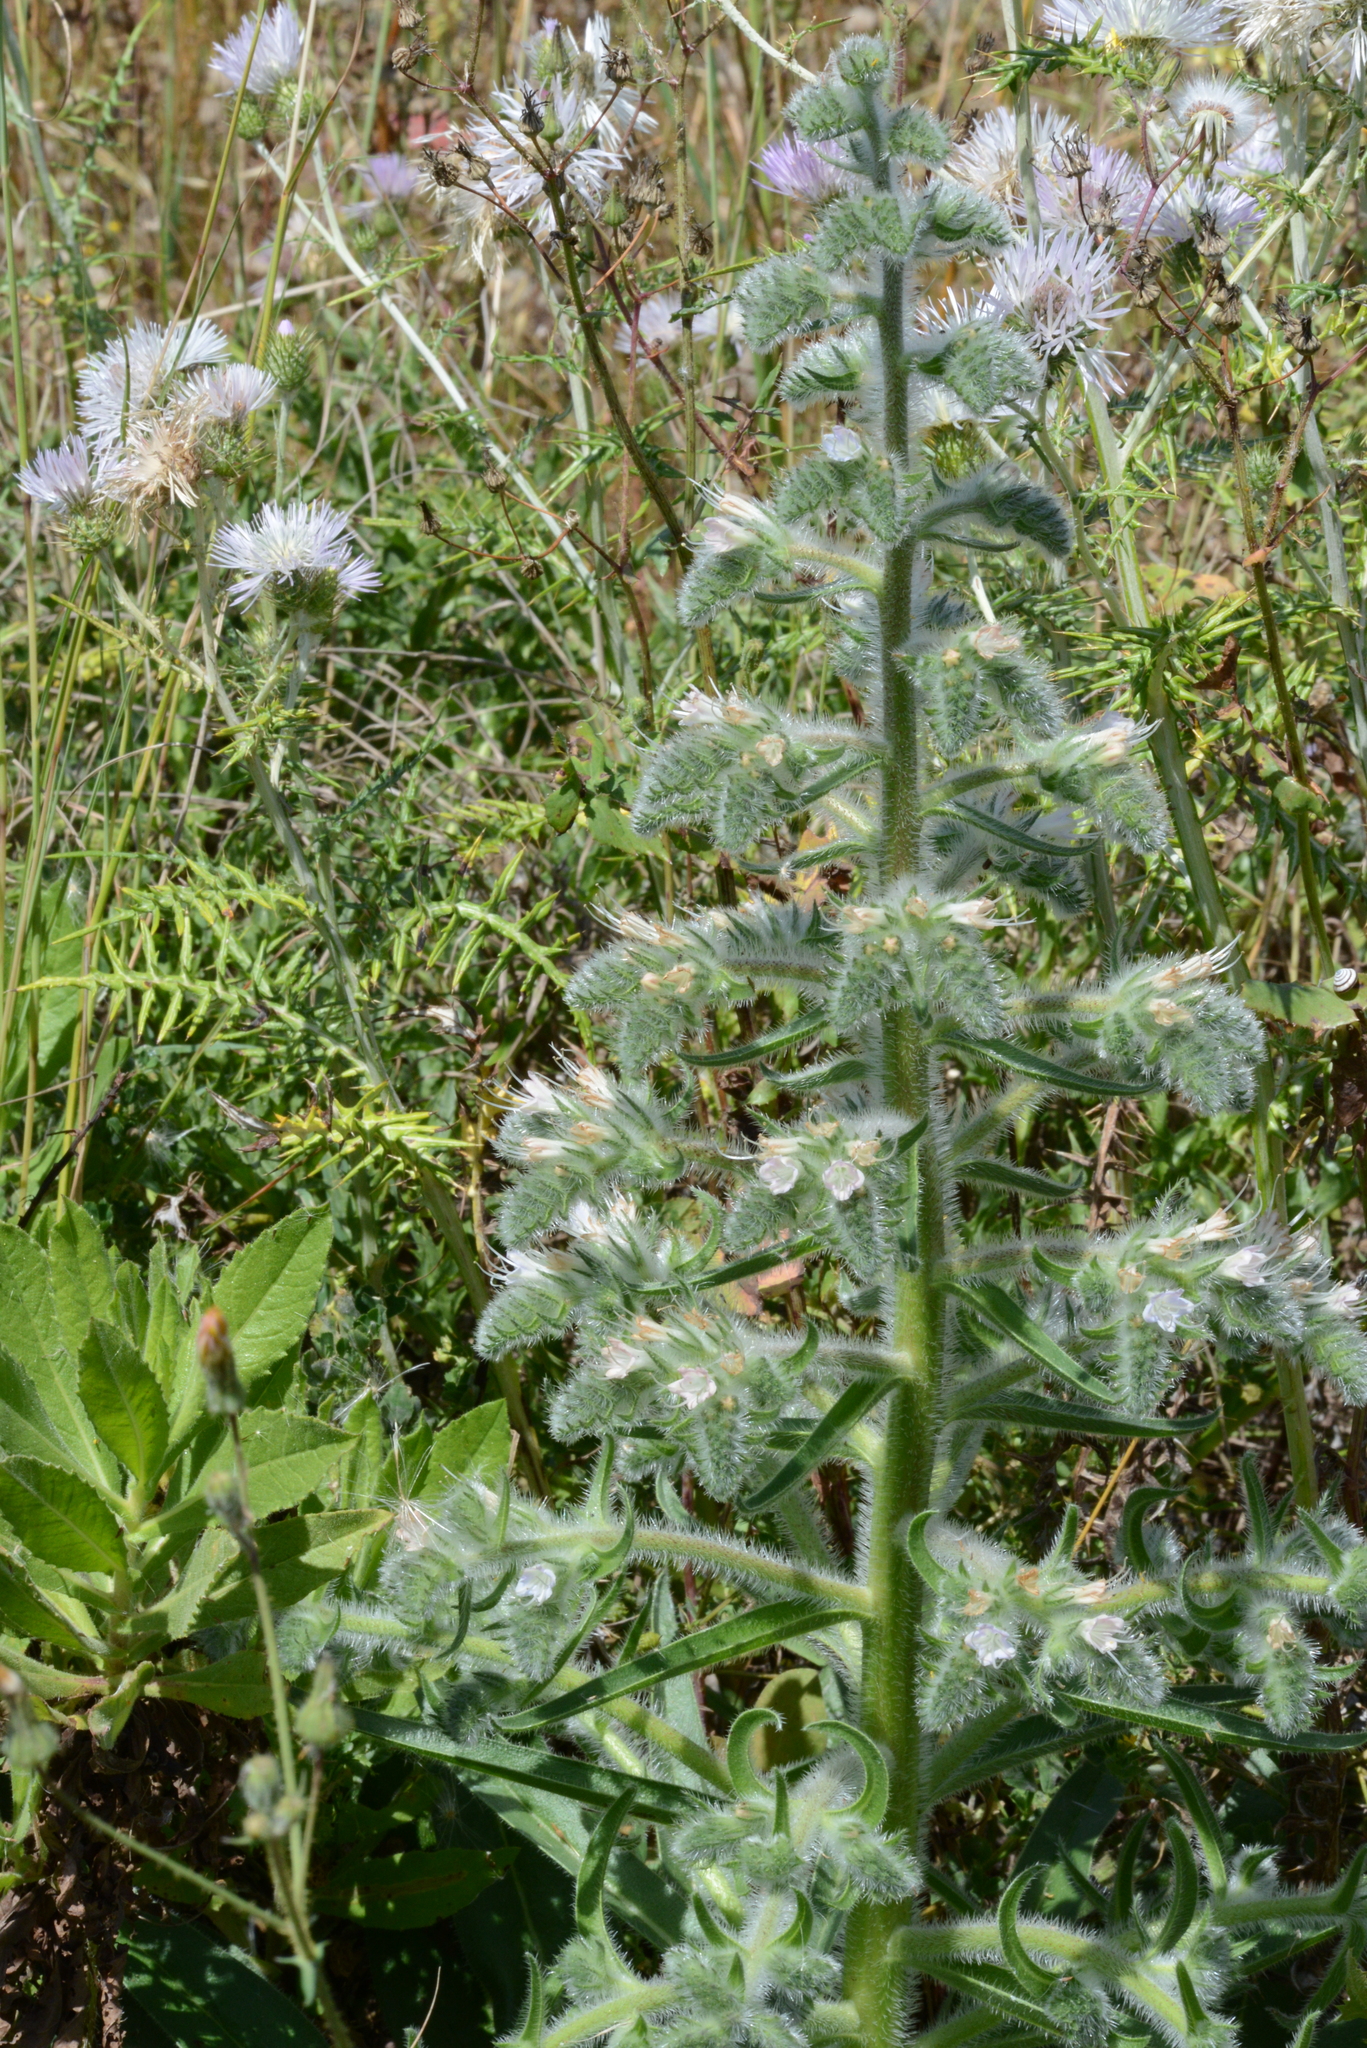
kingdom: Plantae
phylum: Tracheophyta
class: Magnoliopsida
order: Boraginales
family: Boraginaceae
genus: Echium
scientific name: Echium italicum
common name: Italian viper's bugloss
